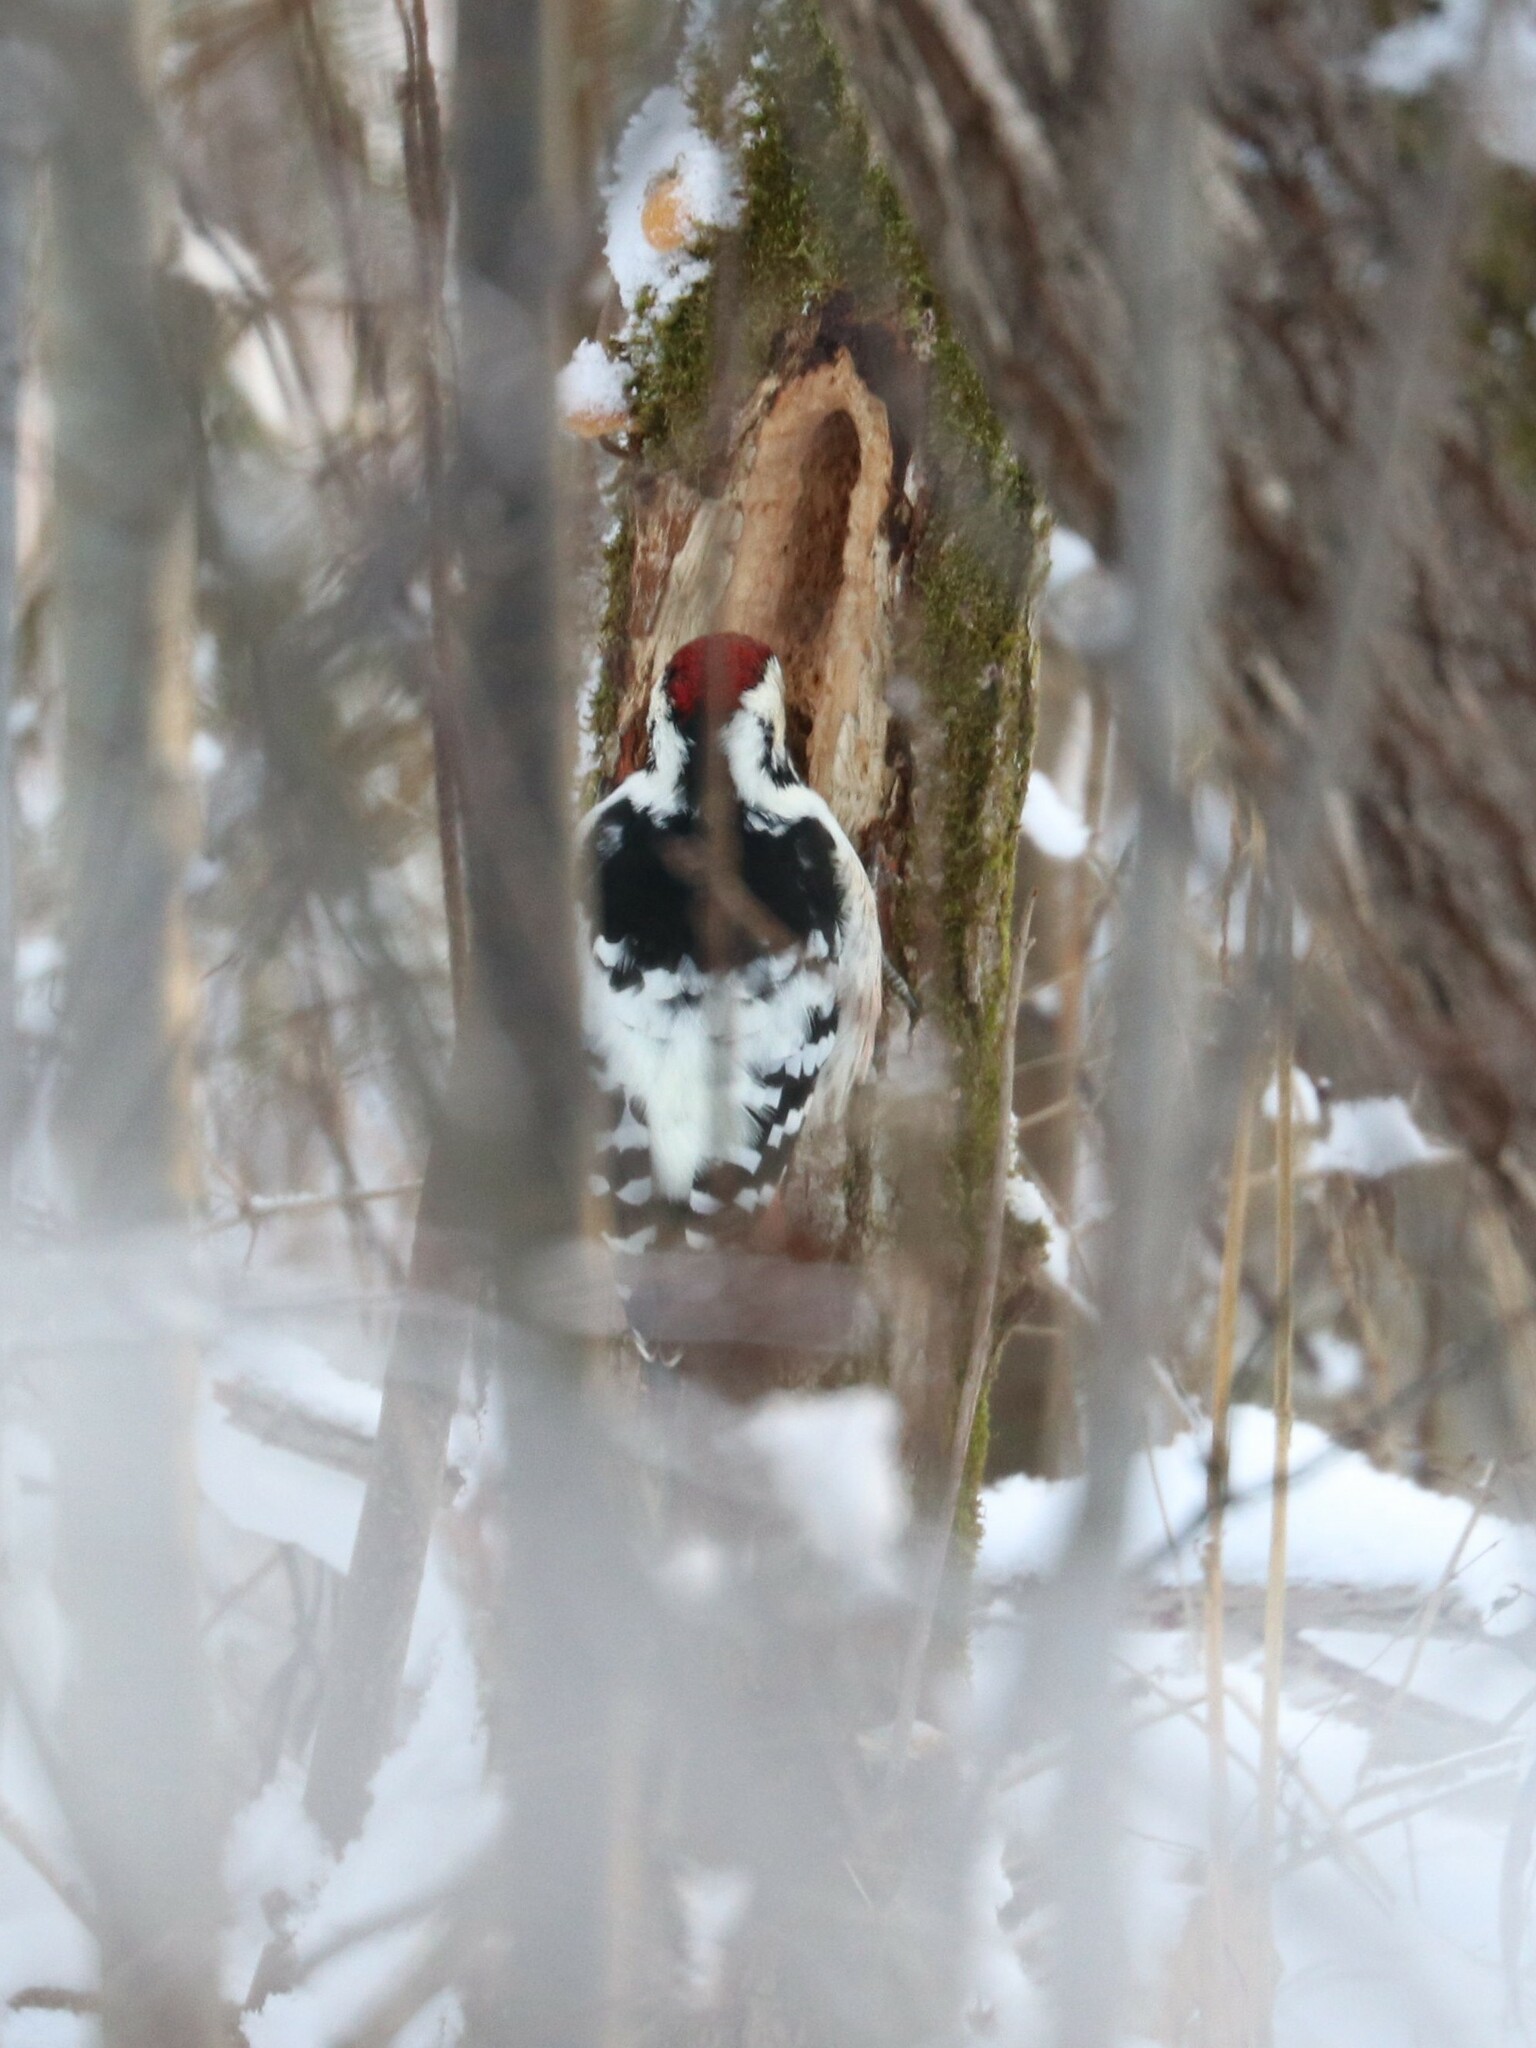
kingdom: Animalia
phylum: Chordata
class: Aves
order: Piciformes
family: Picidae
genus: Dendrocopos
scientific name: Dendrocopos leucotos
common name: White-backed woodpecker
